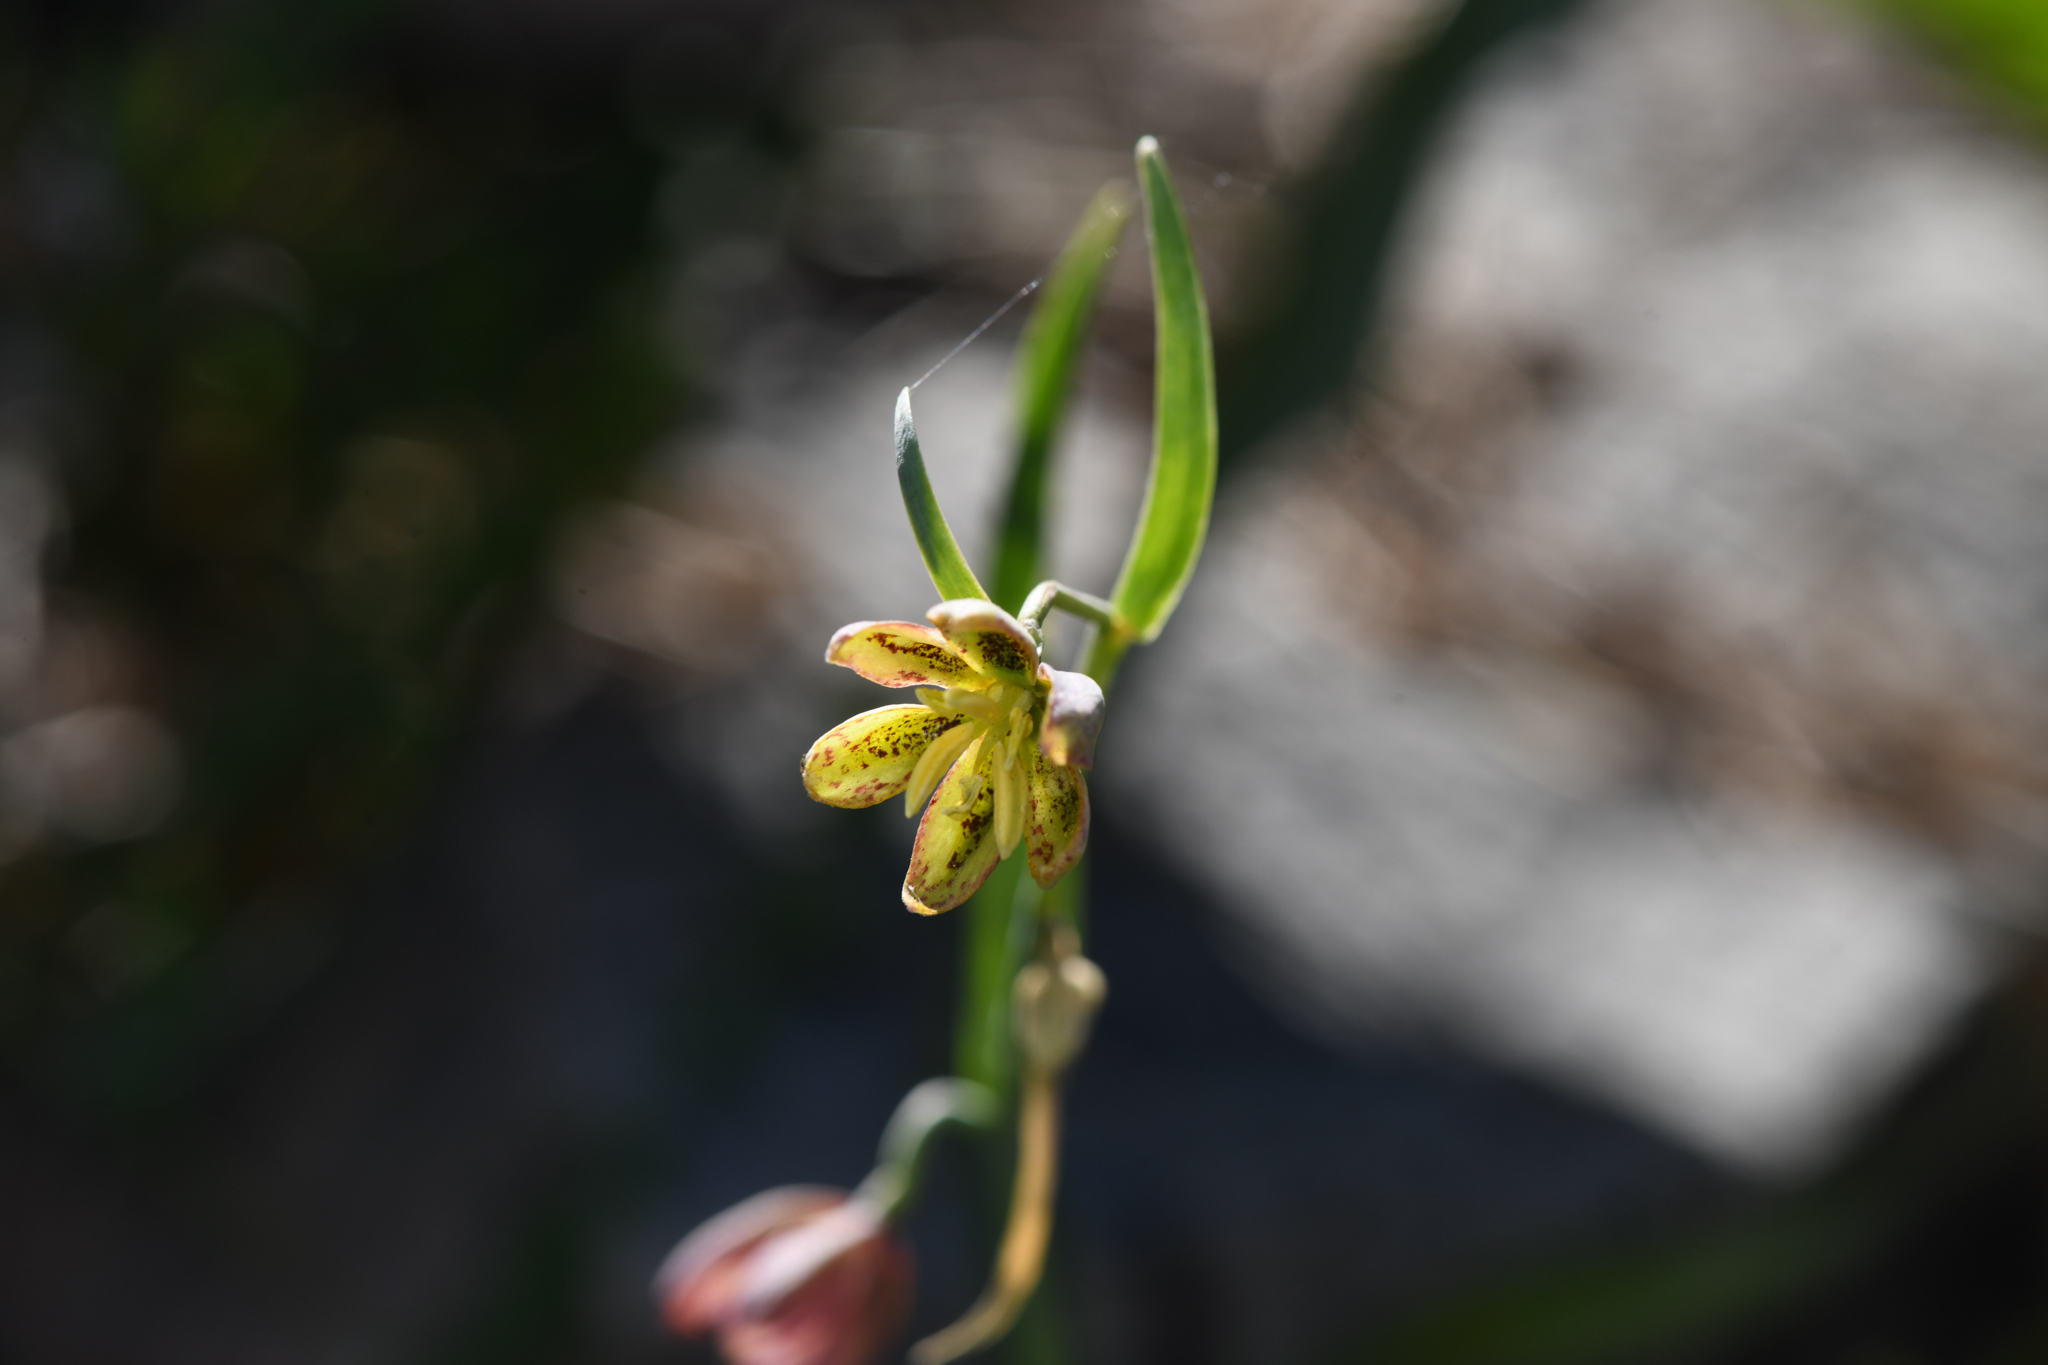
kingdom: Plantae
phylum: Tracheophyta
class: Liliopsida
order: Liliales
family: Liliaceae
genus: Fritillaria
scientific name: Fritillaria micrantha
